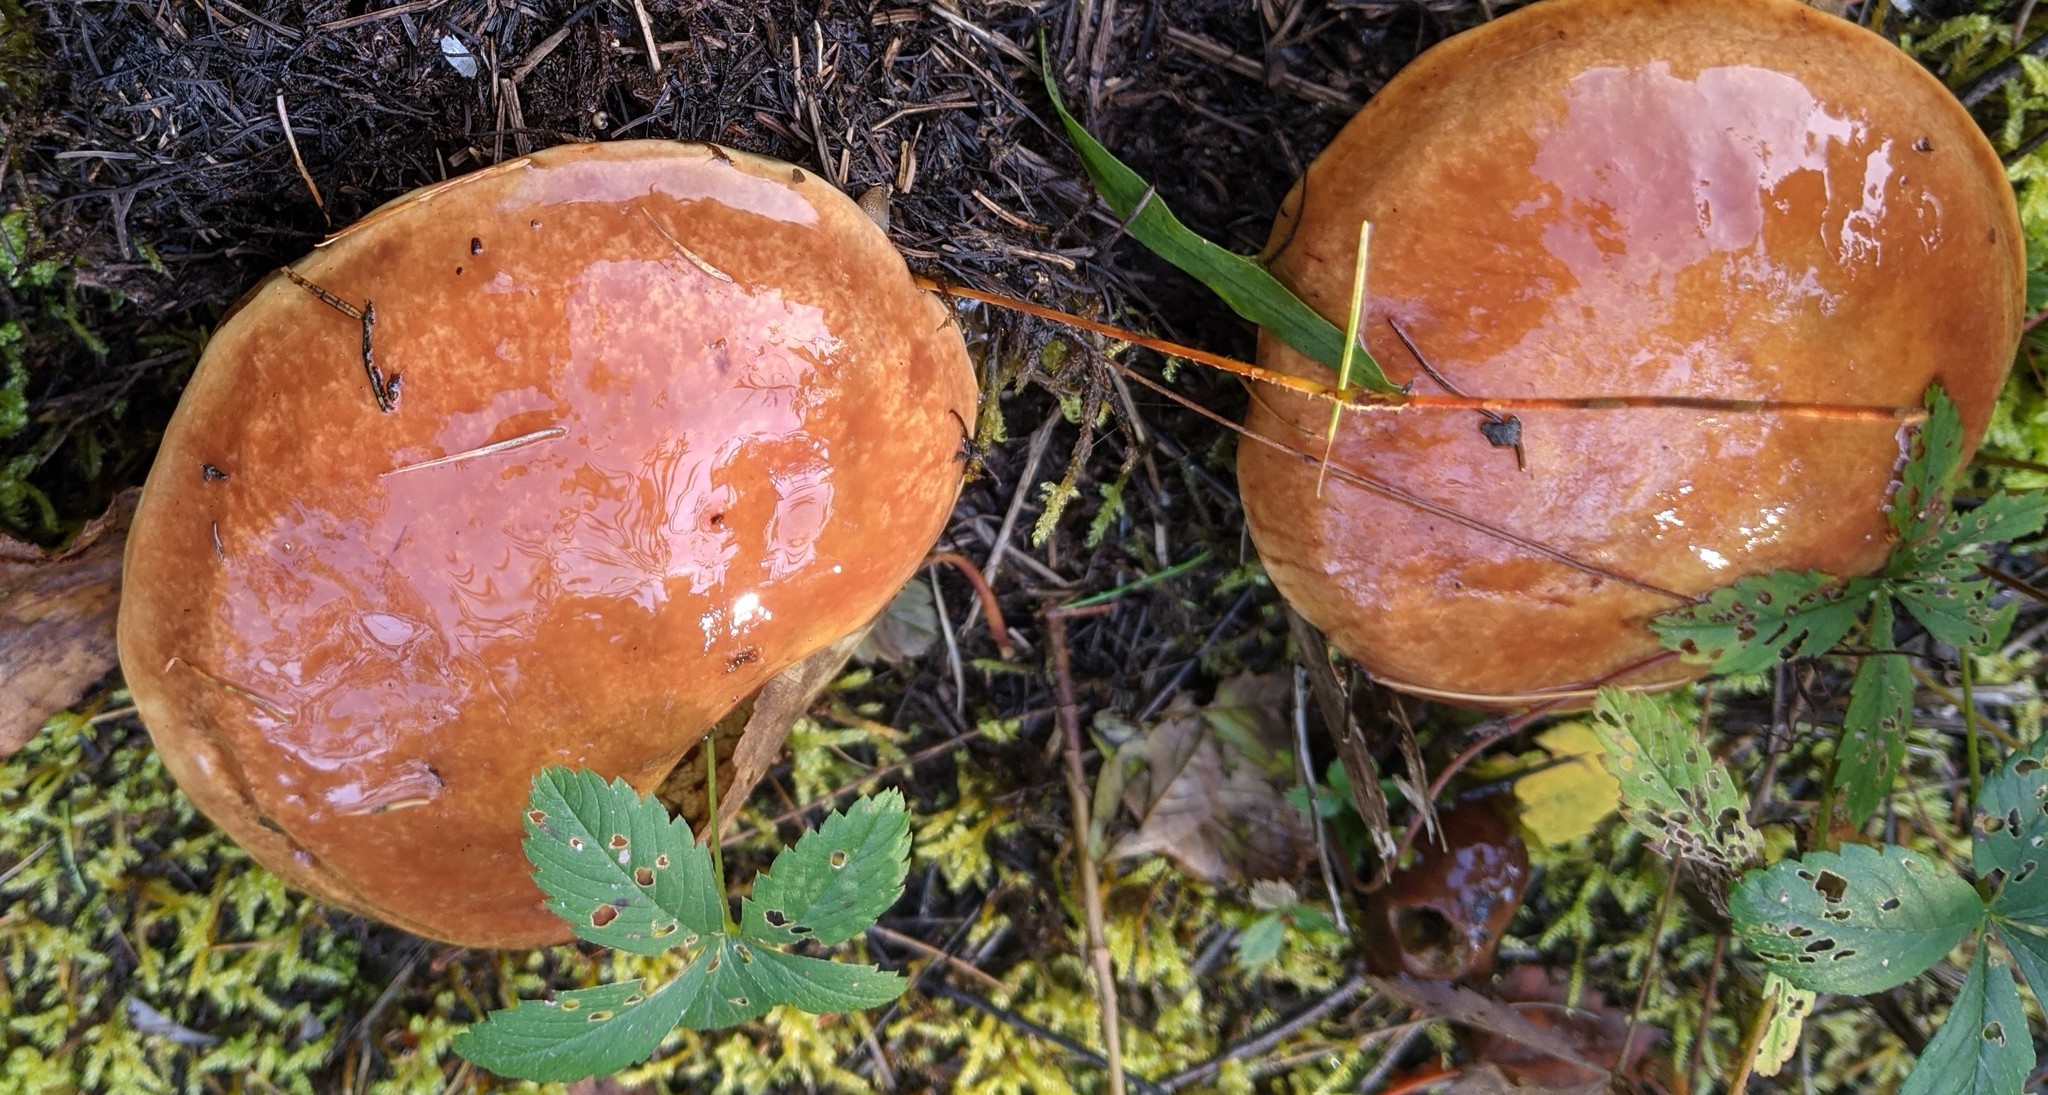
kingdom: Fungi
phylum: Basidiomycota
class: Agaricomycetes
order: Boletales
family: Suillaceae
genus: Suillus
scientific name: Suillus grevillei
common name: Larch bolete
